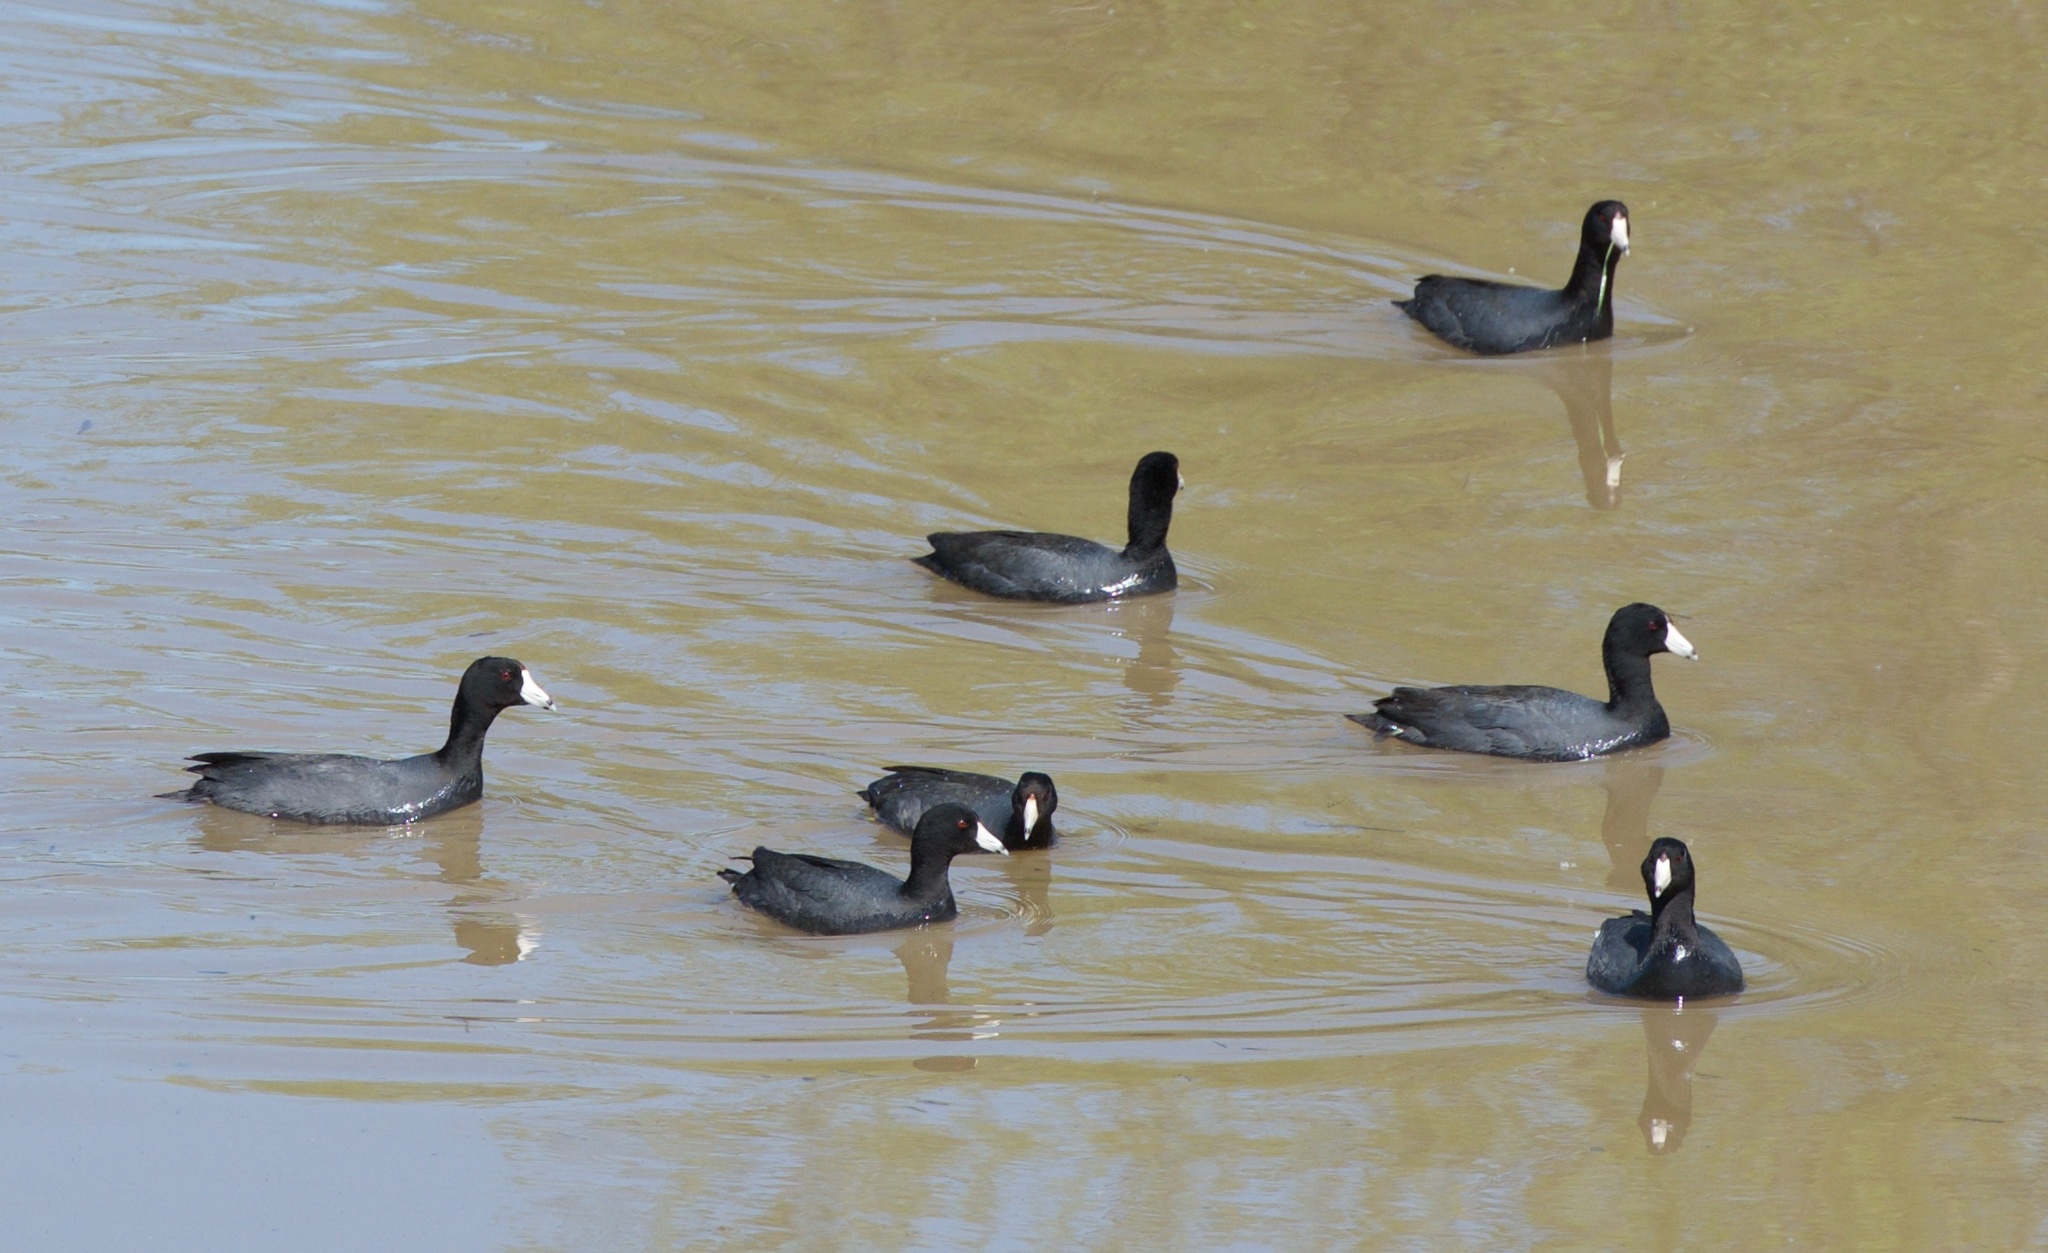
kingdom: Animalia
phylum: Chordata
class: Aves
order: Gruiformes
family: Rallidae
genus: Fulica
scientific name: Fulica americana
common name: American coot
